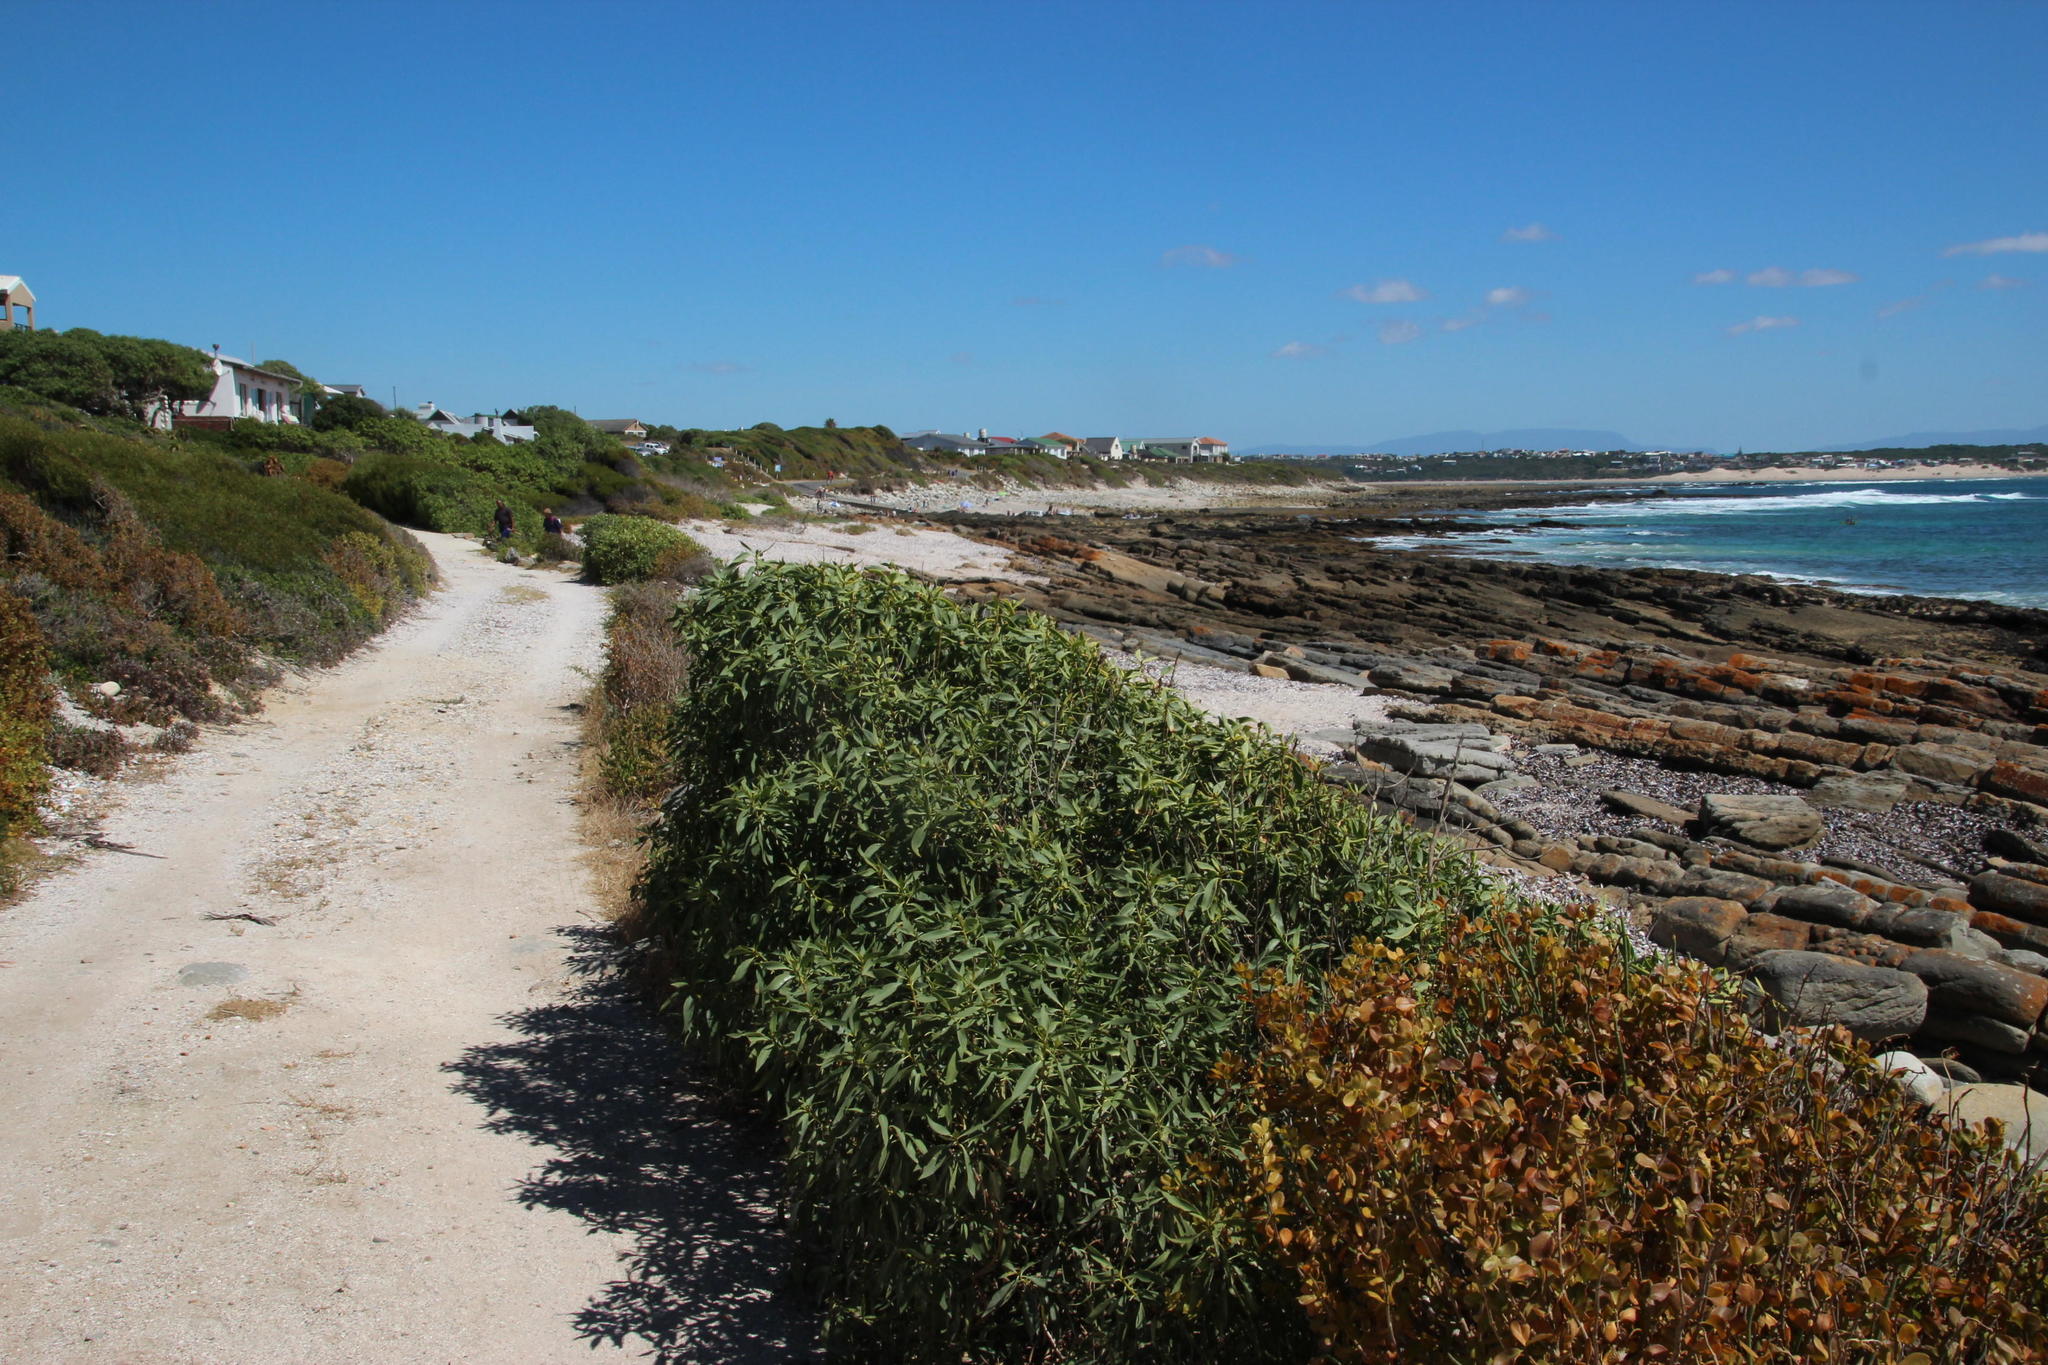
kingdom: Plantae
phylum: Tracheophyta
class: Magnoliopsida
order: Lamiales
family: Scrophulariaceae
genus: Myoporum
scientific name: Myoporum montanum
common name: Waterbush
